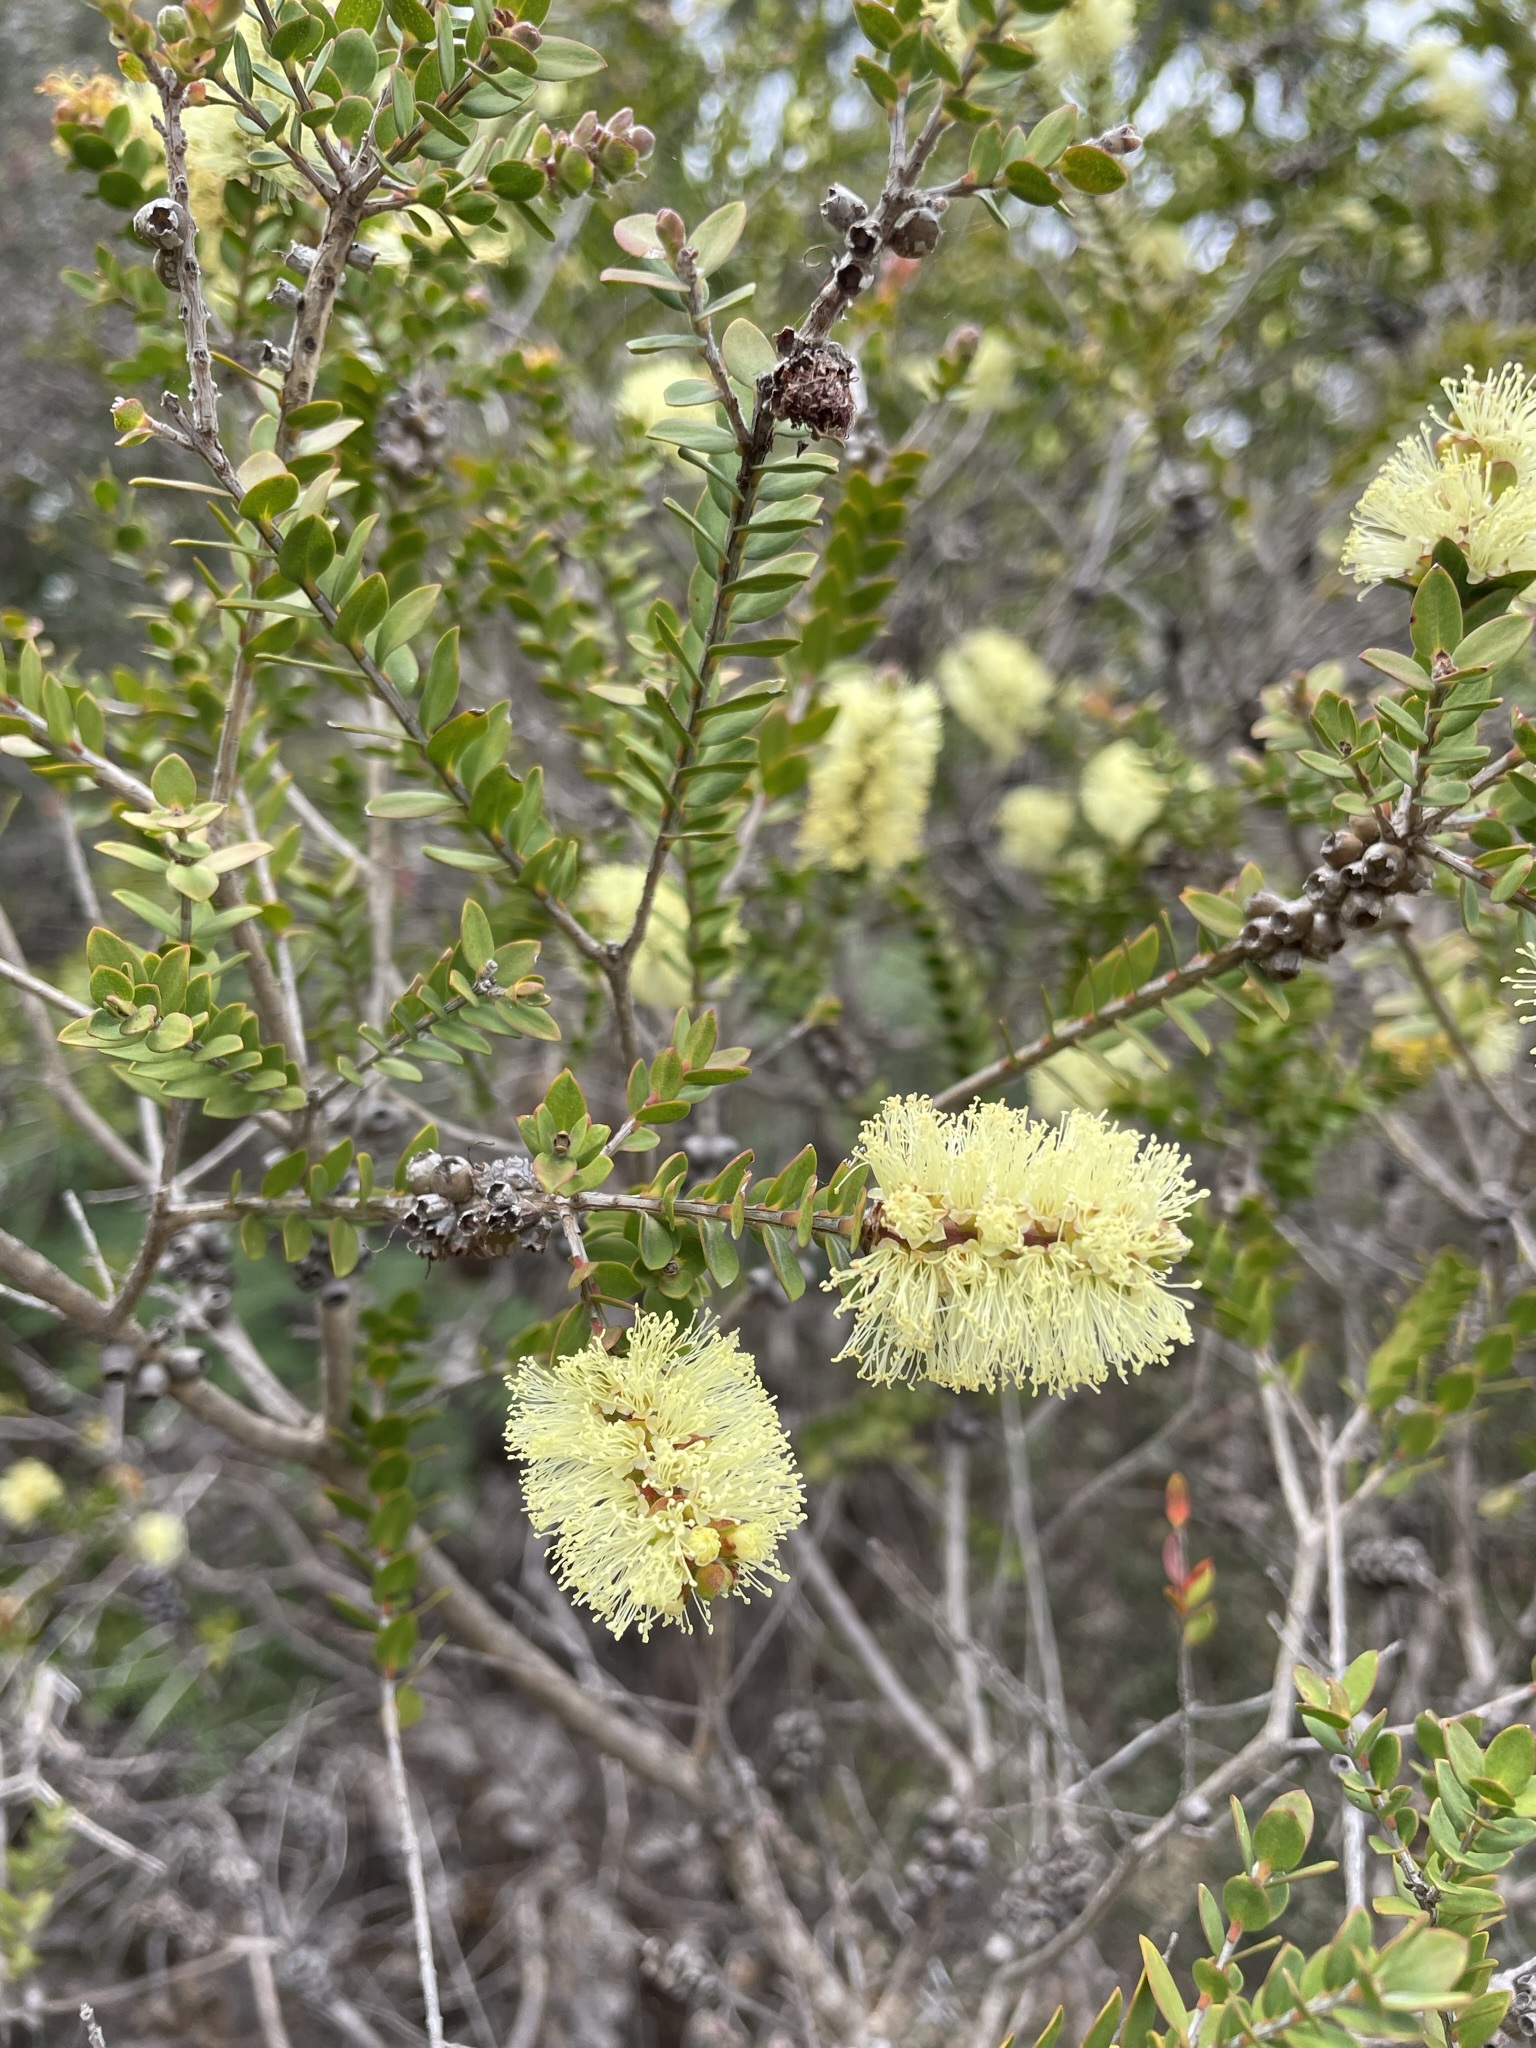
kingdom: Plantae
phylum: Tracheophyta
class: Magnoliopsida
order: Myrtales
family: Myrtaceae
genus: Melaleuca
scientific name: Melaleuca squarrosa
